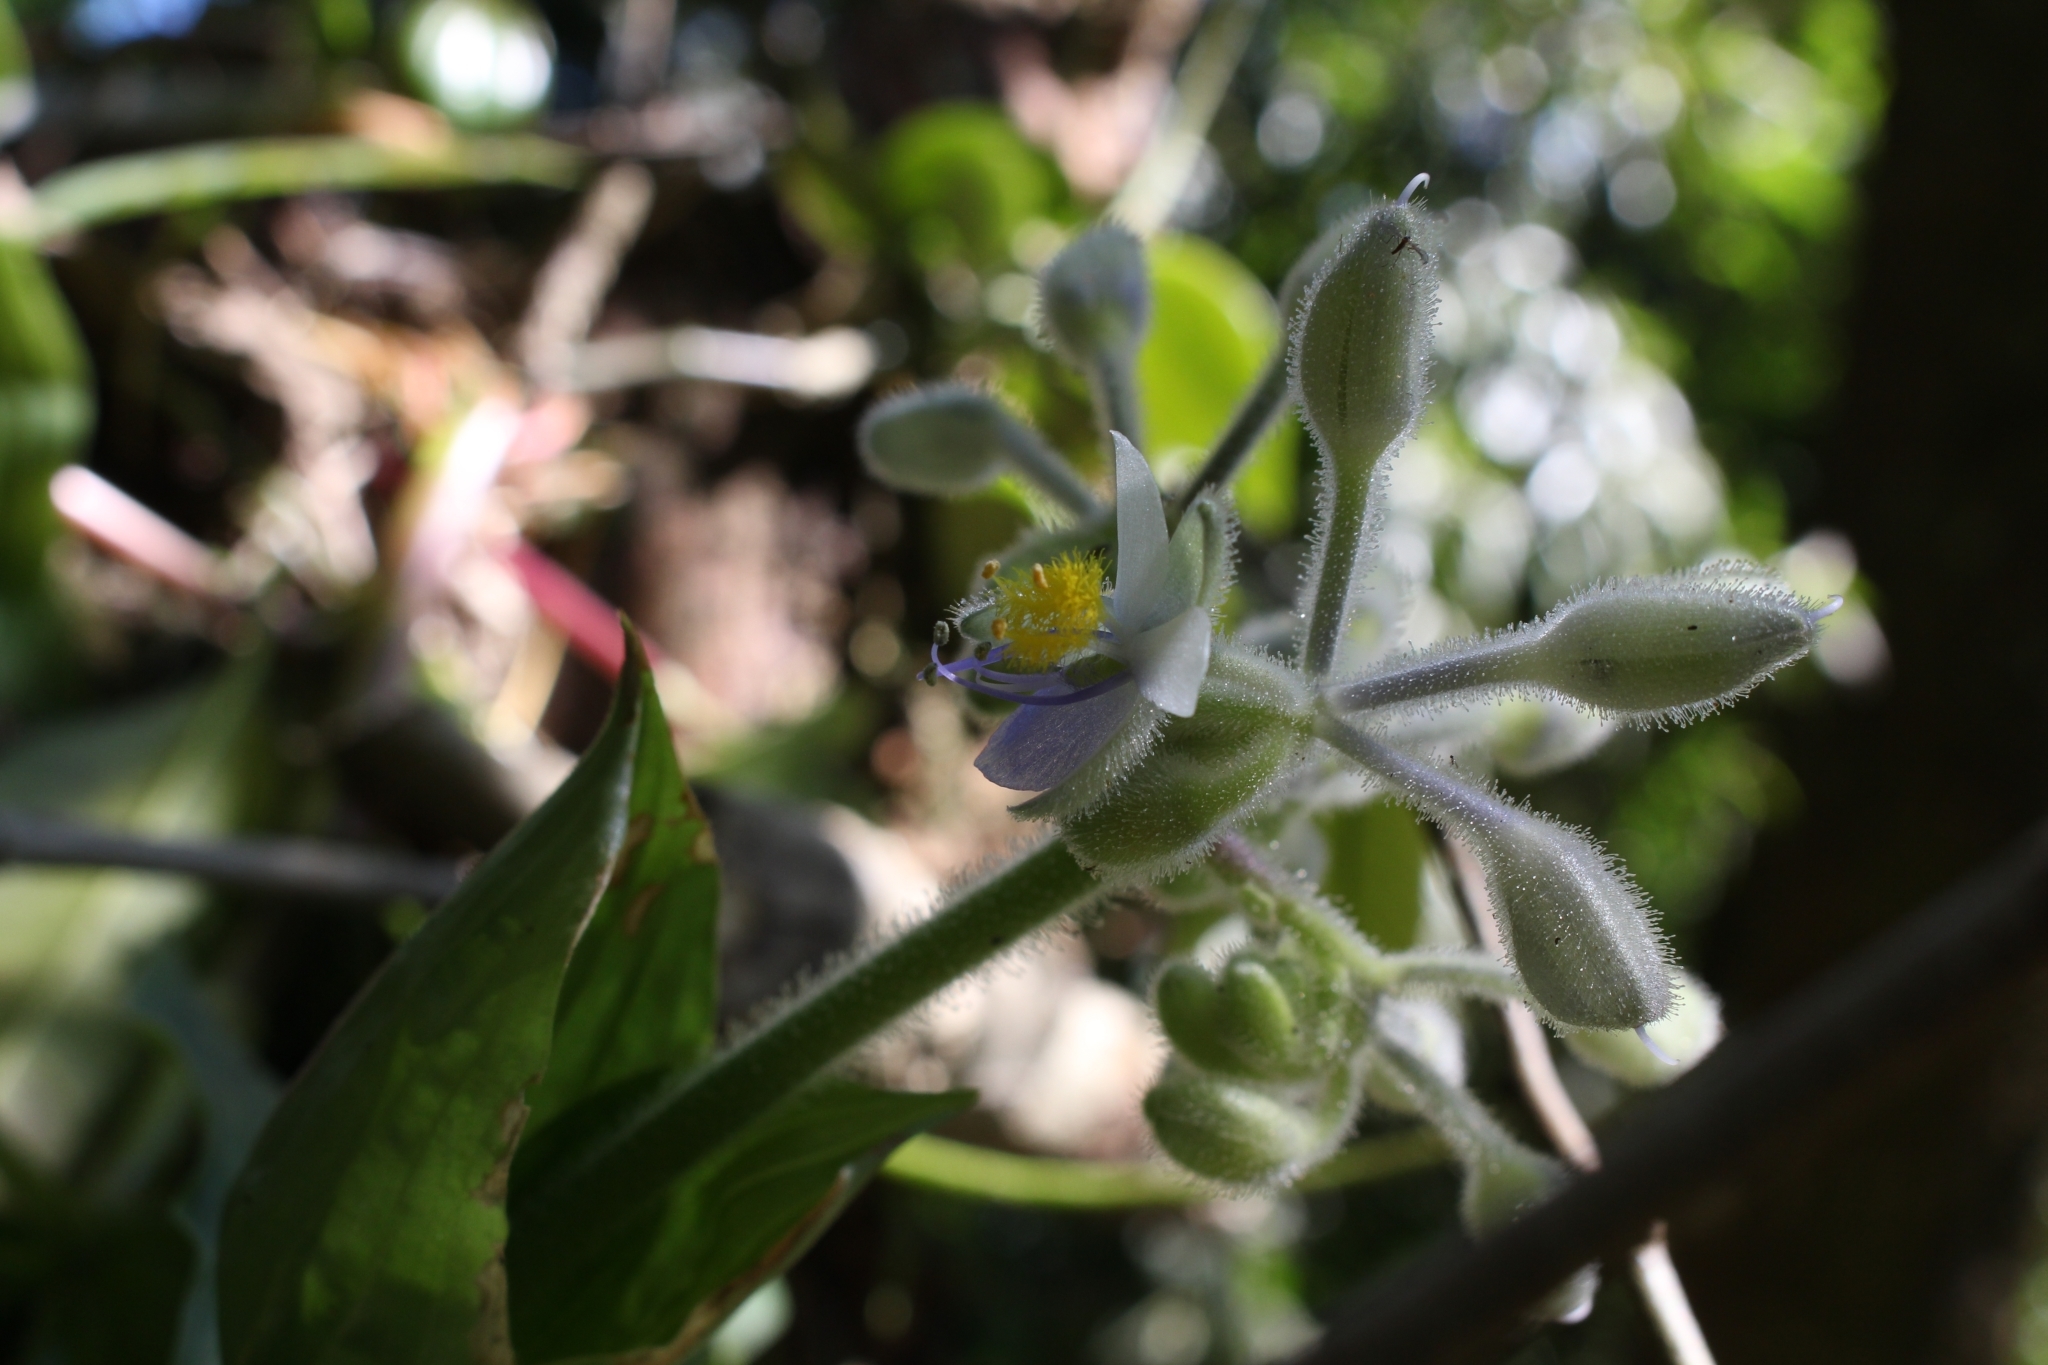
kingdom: Plantae
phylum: Tracheophyta
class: Liliopsida
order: Commelinales
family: Commelinaceae
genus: Tinantia
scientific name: Tinantia erecta
